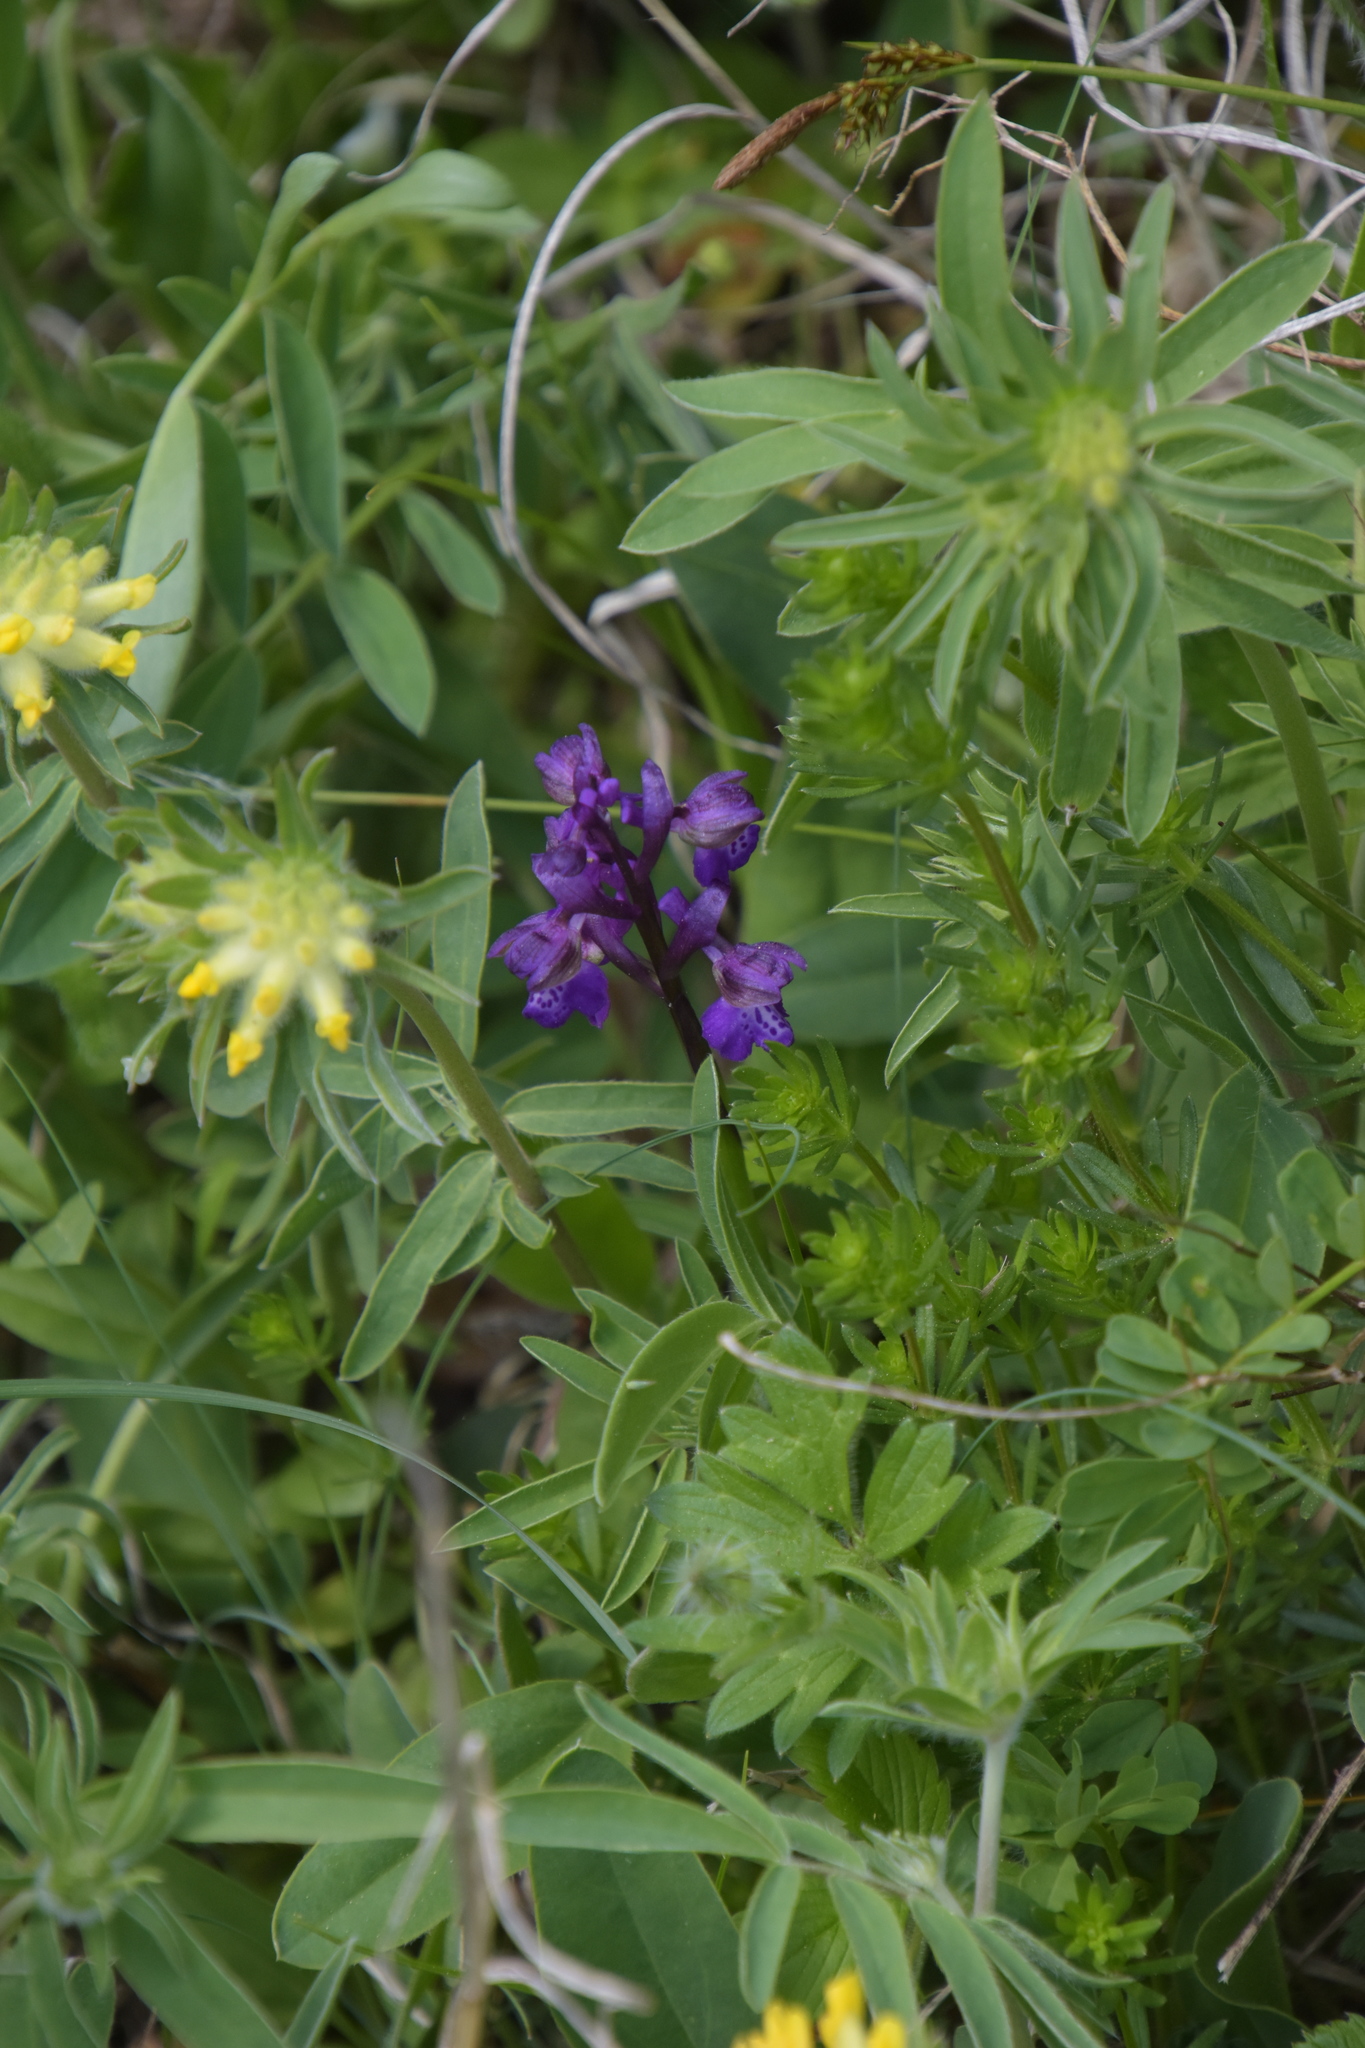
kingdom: Plantae
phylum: Tracheophyta
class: Liliopsida
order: Asparagales
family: Orchidaceae
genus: Anacamptis
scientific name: Anacamptis morio
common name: Green-winged orchid
